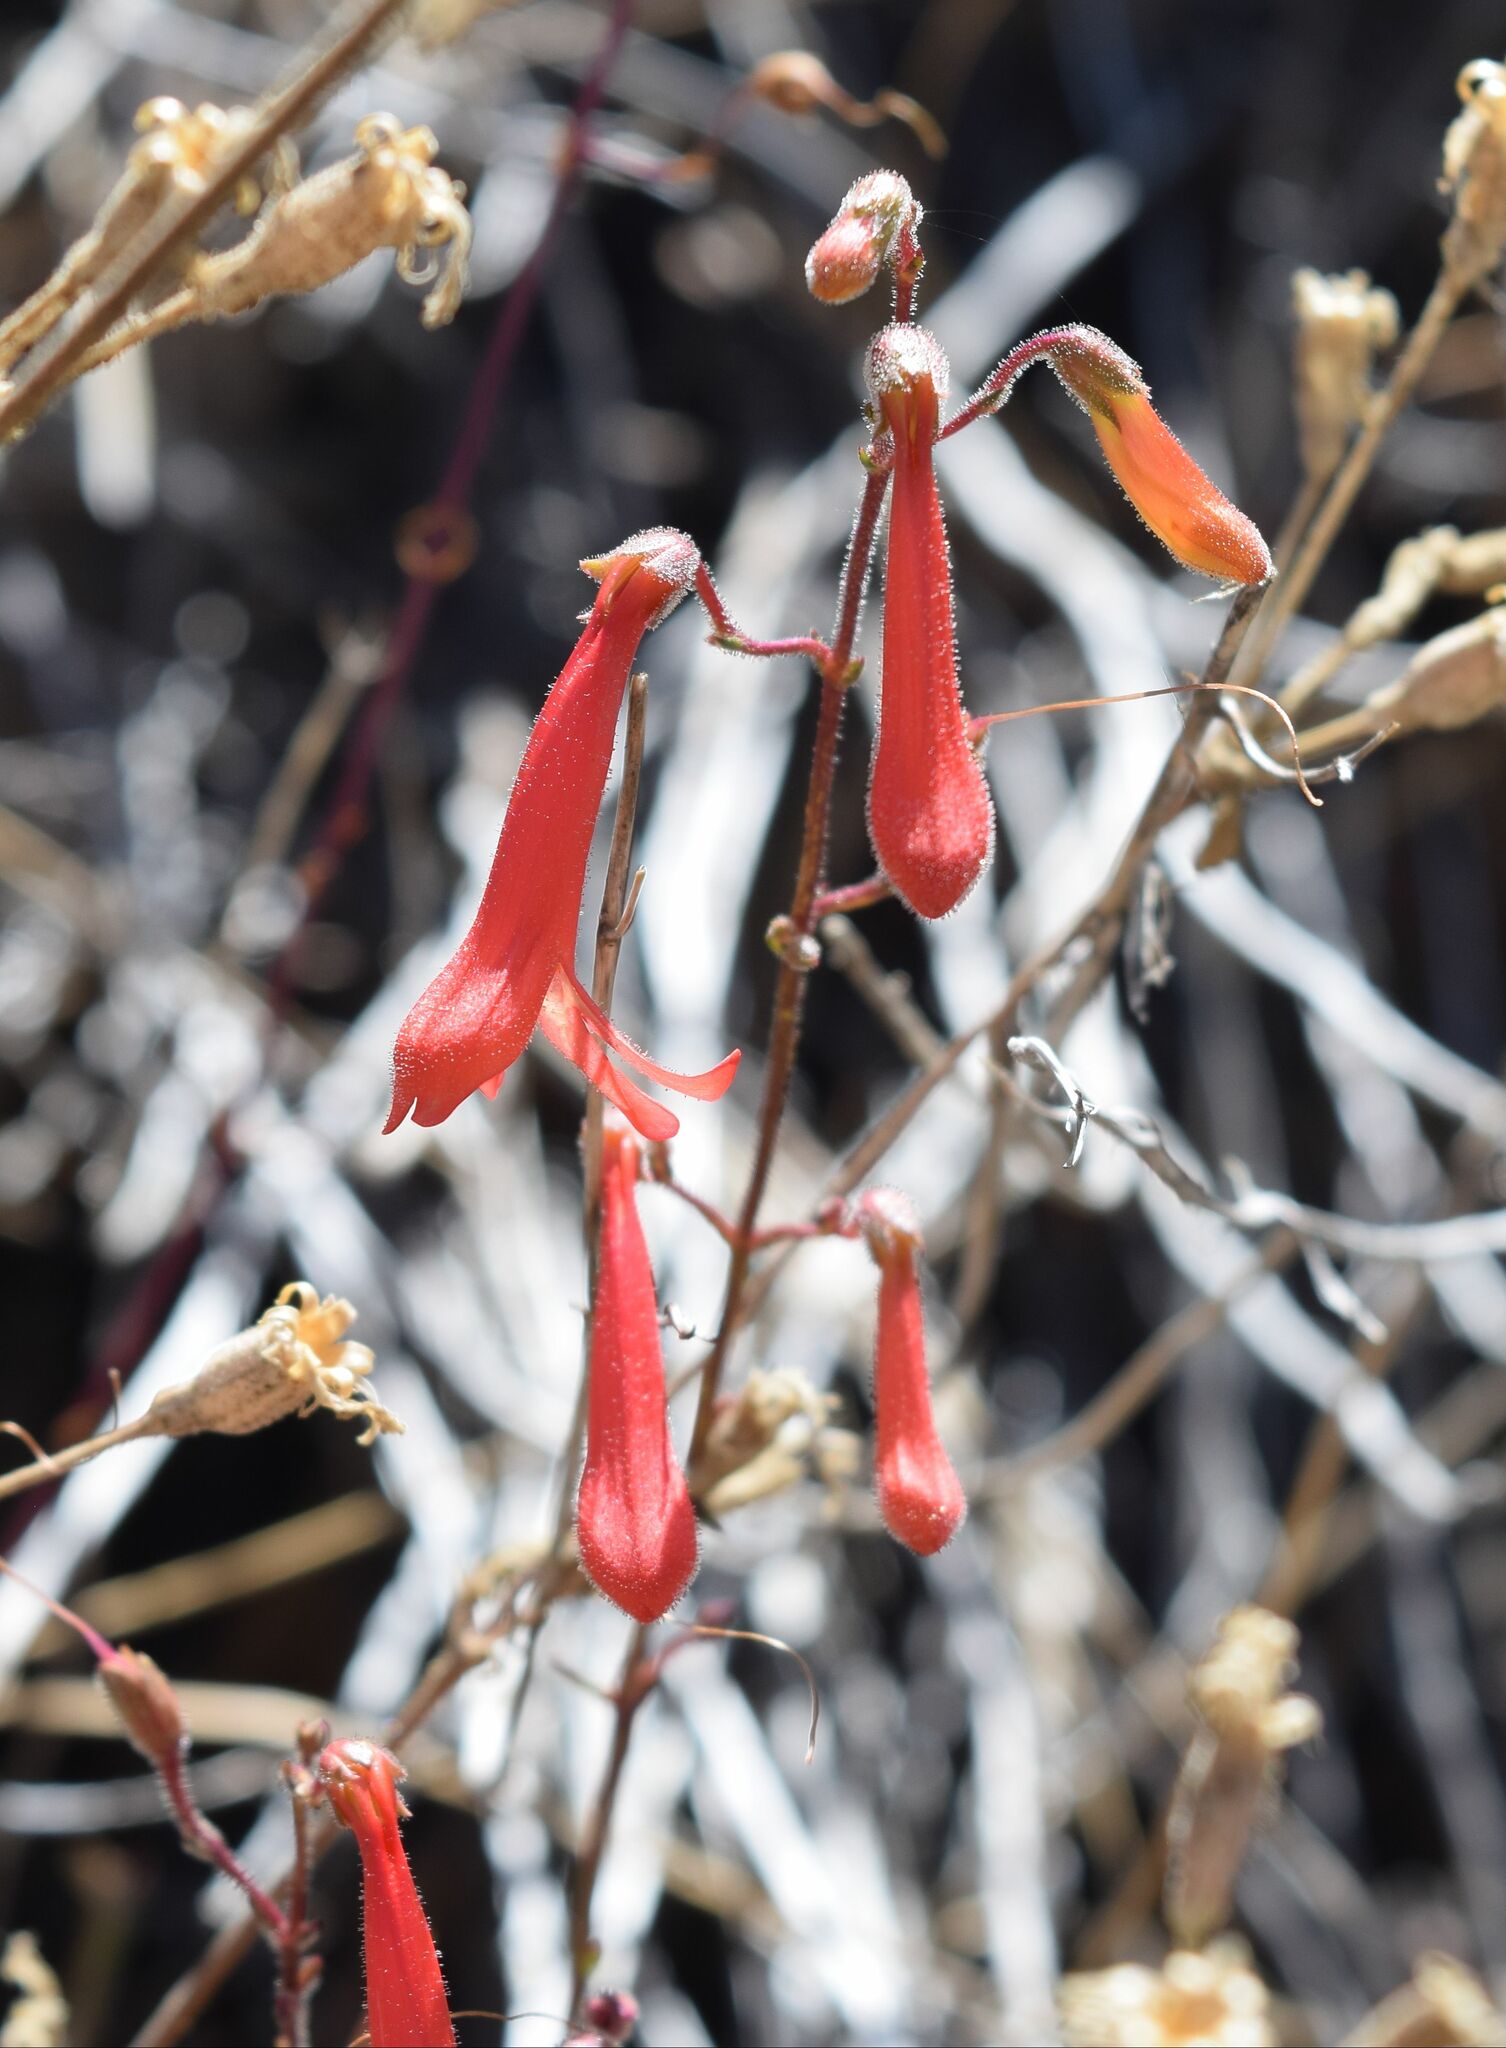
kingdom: Plantae
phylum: Tracheophyta
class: Magnoliopsida
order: Lamiales
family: Plantaginaceae
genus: Penstemon
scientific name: Penstemon rostriflorus
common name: Bridges's penstemon
